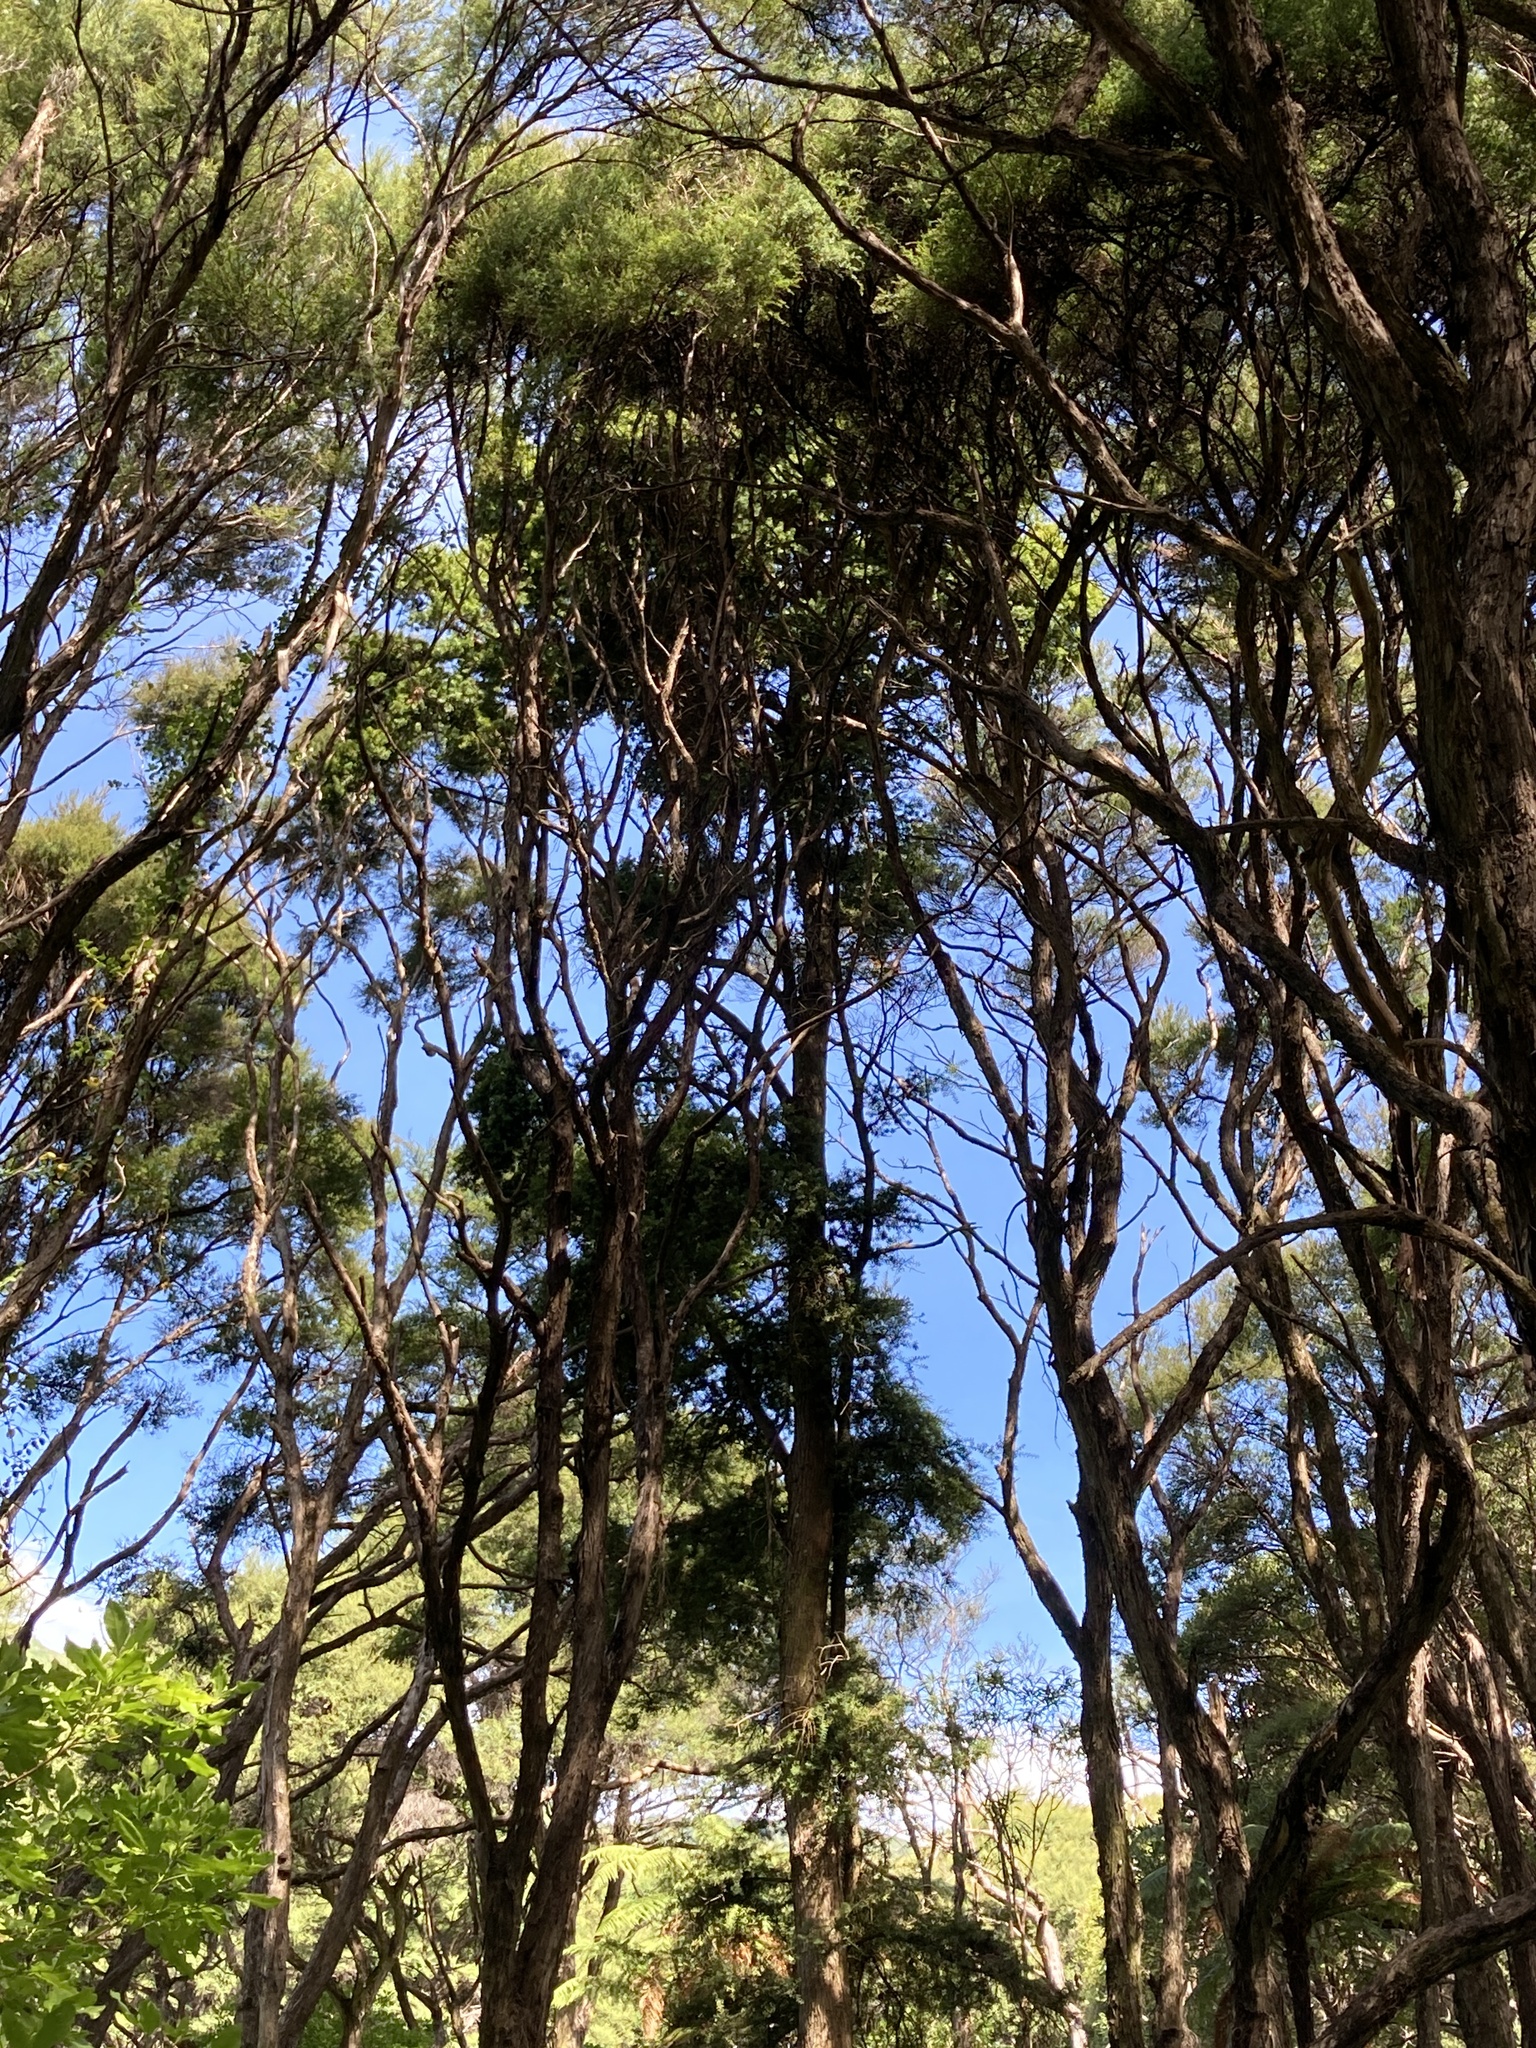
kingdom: Plantae
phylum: Tracheophyta
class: Pinopsida
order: Pinales
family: Podocarpaceae
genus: Podocarpus
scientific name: Podocarpus totara
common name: Totara
